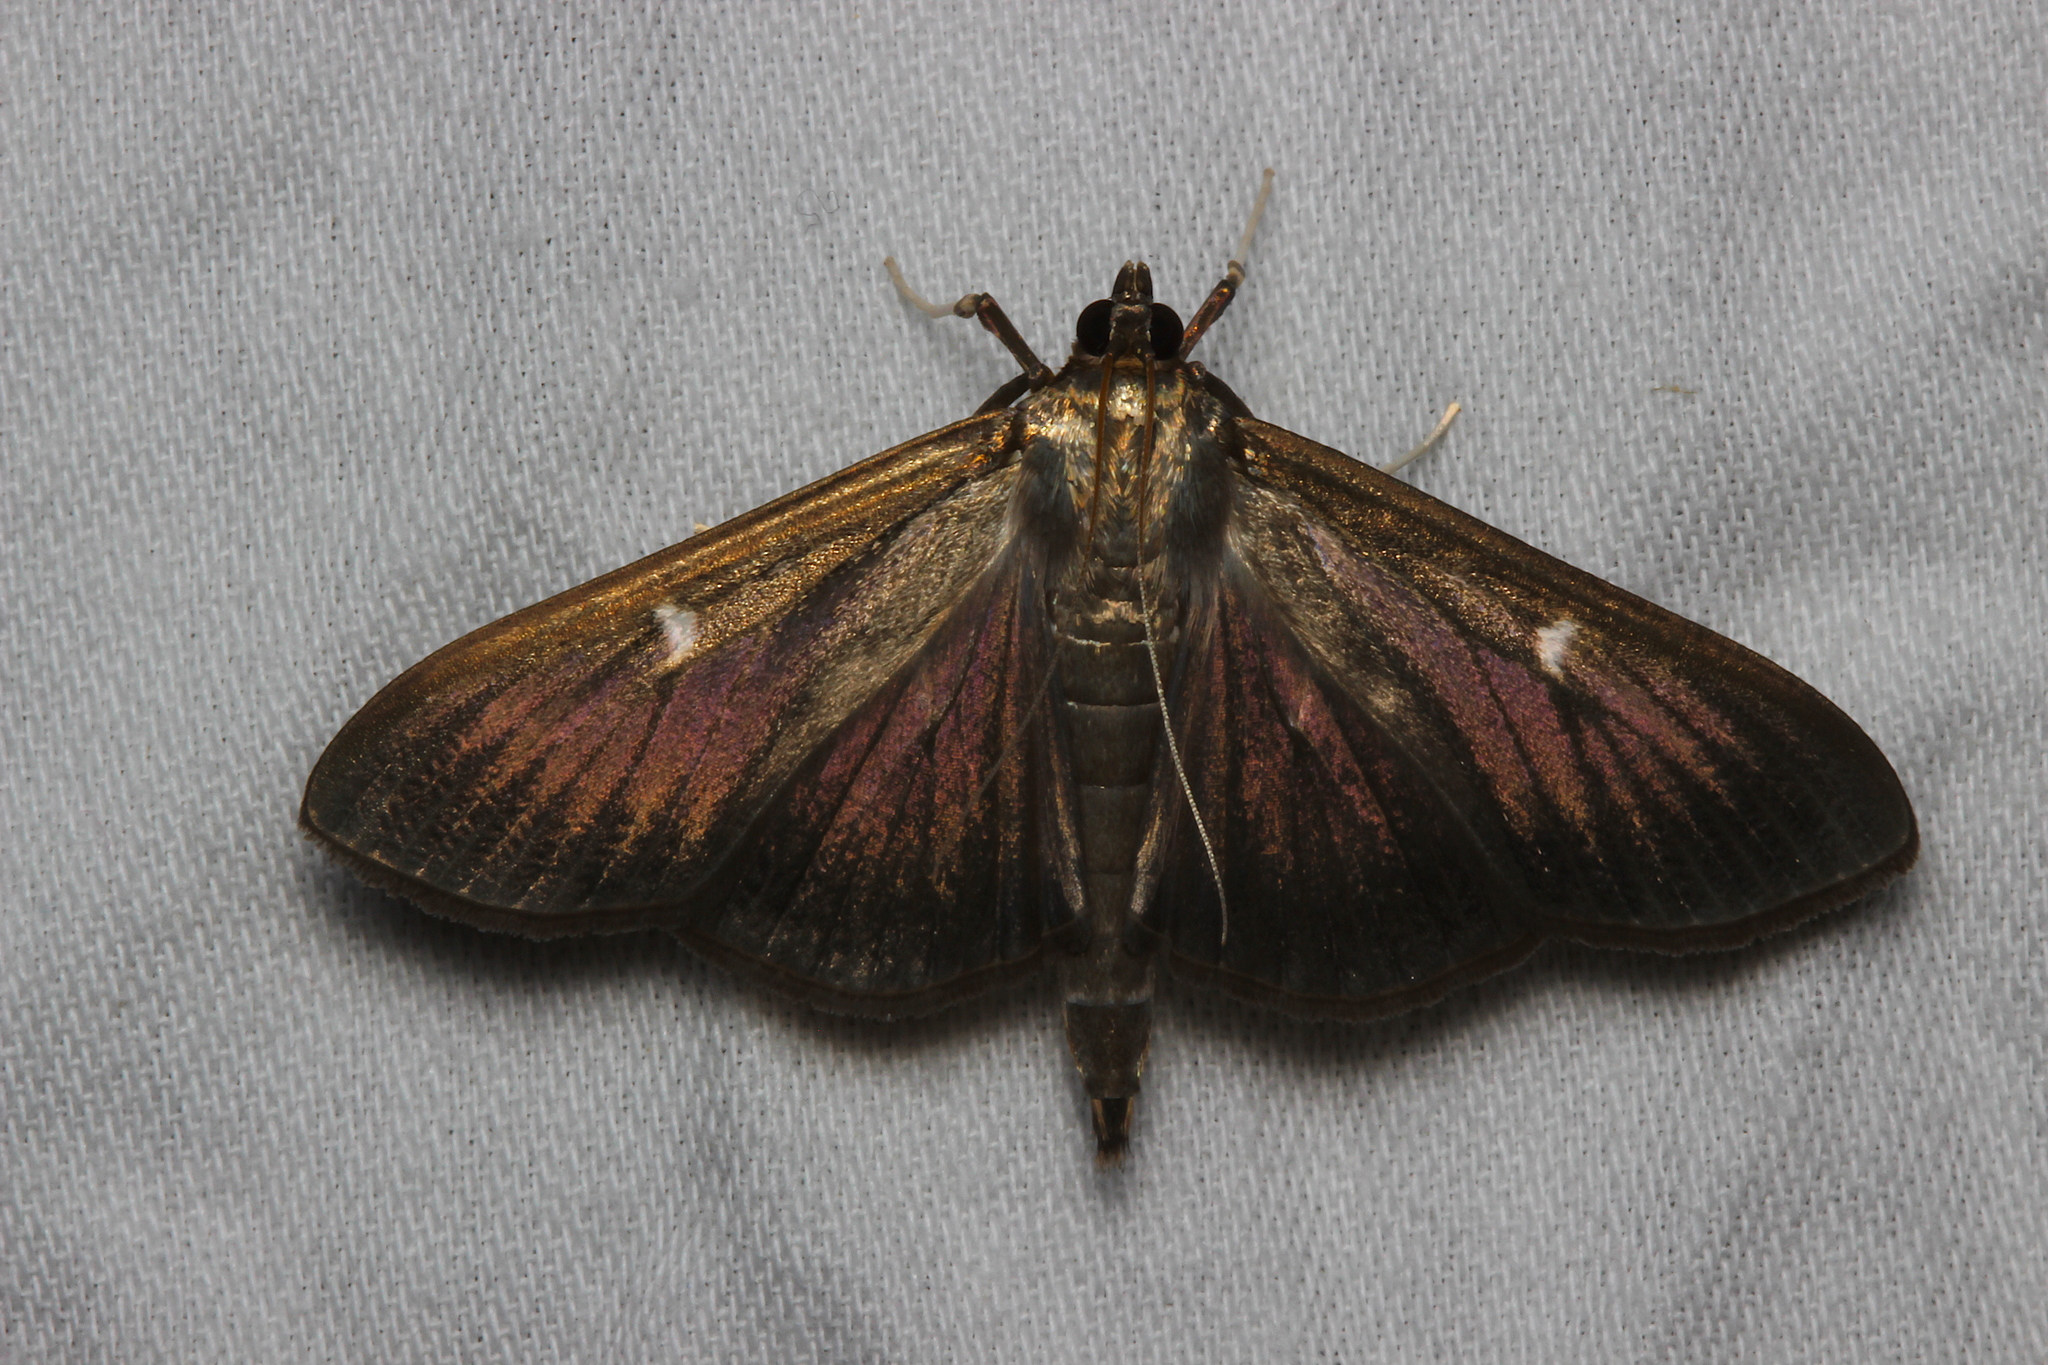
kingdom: Animalia
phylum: Arthropoda
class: Insecta
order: Lepidoptera
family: Crambidae
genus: Cydalima
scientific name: Cydalima perspectalis
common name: Box tree moth
